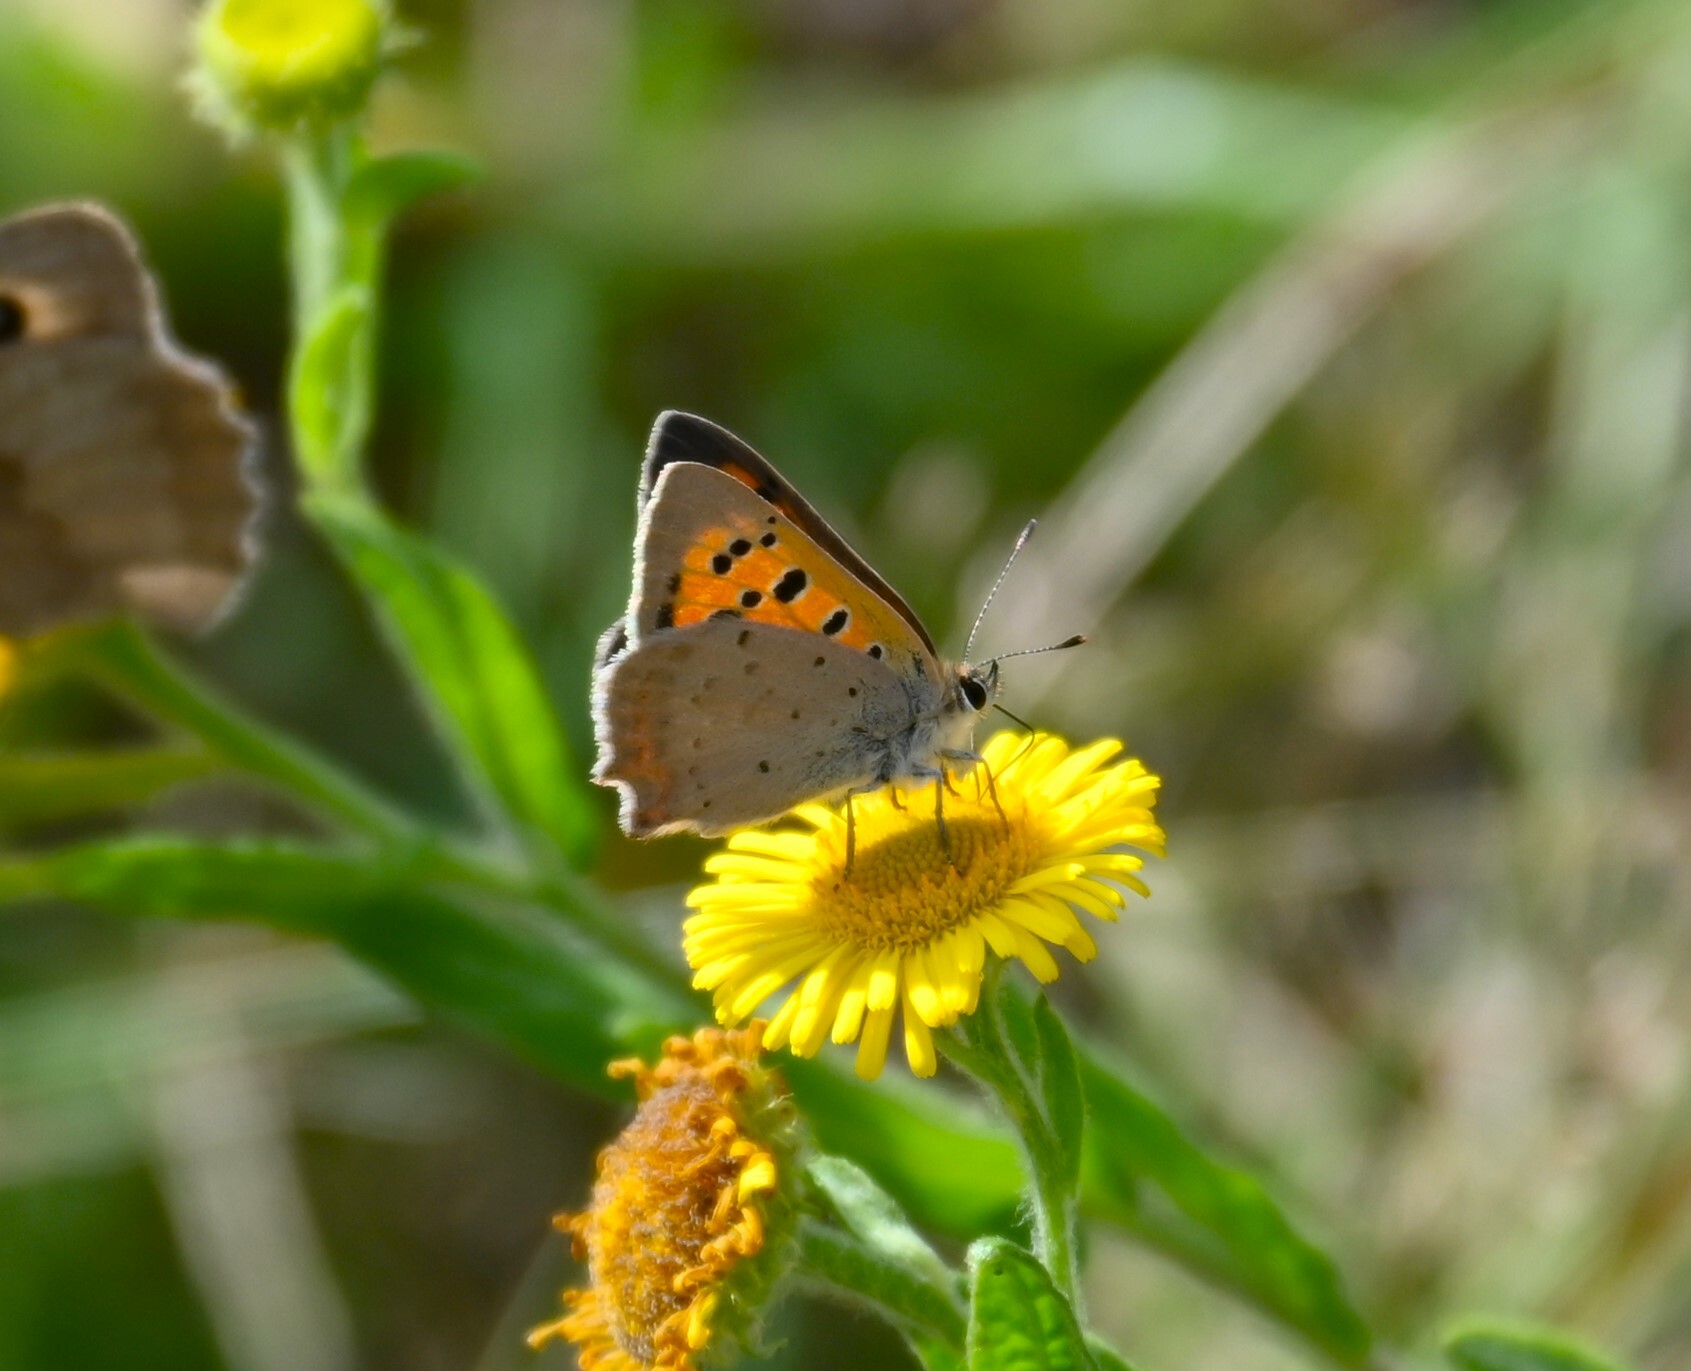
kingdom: Animalia
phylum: Arthropoda
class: Insecta
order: Lepidoptera
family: Lycaenidae
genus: Lycaena
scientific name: Lycaena phlaeas
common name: Small copper
